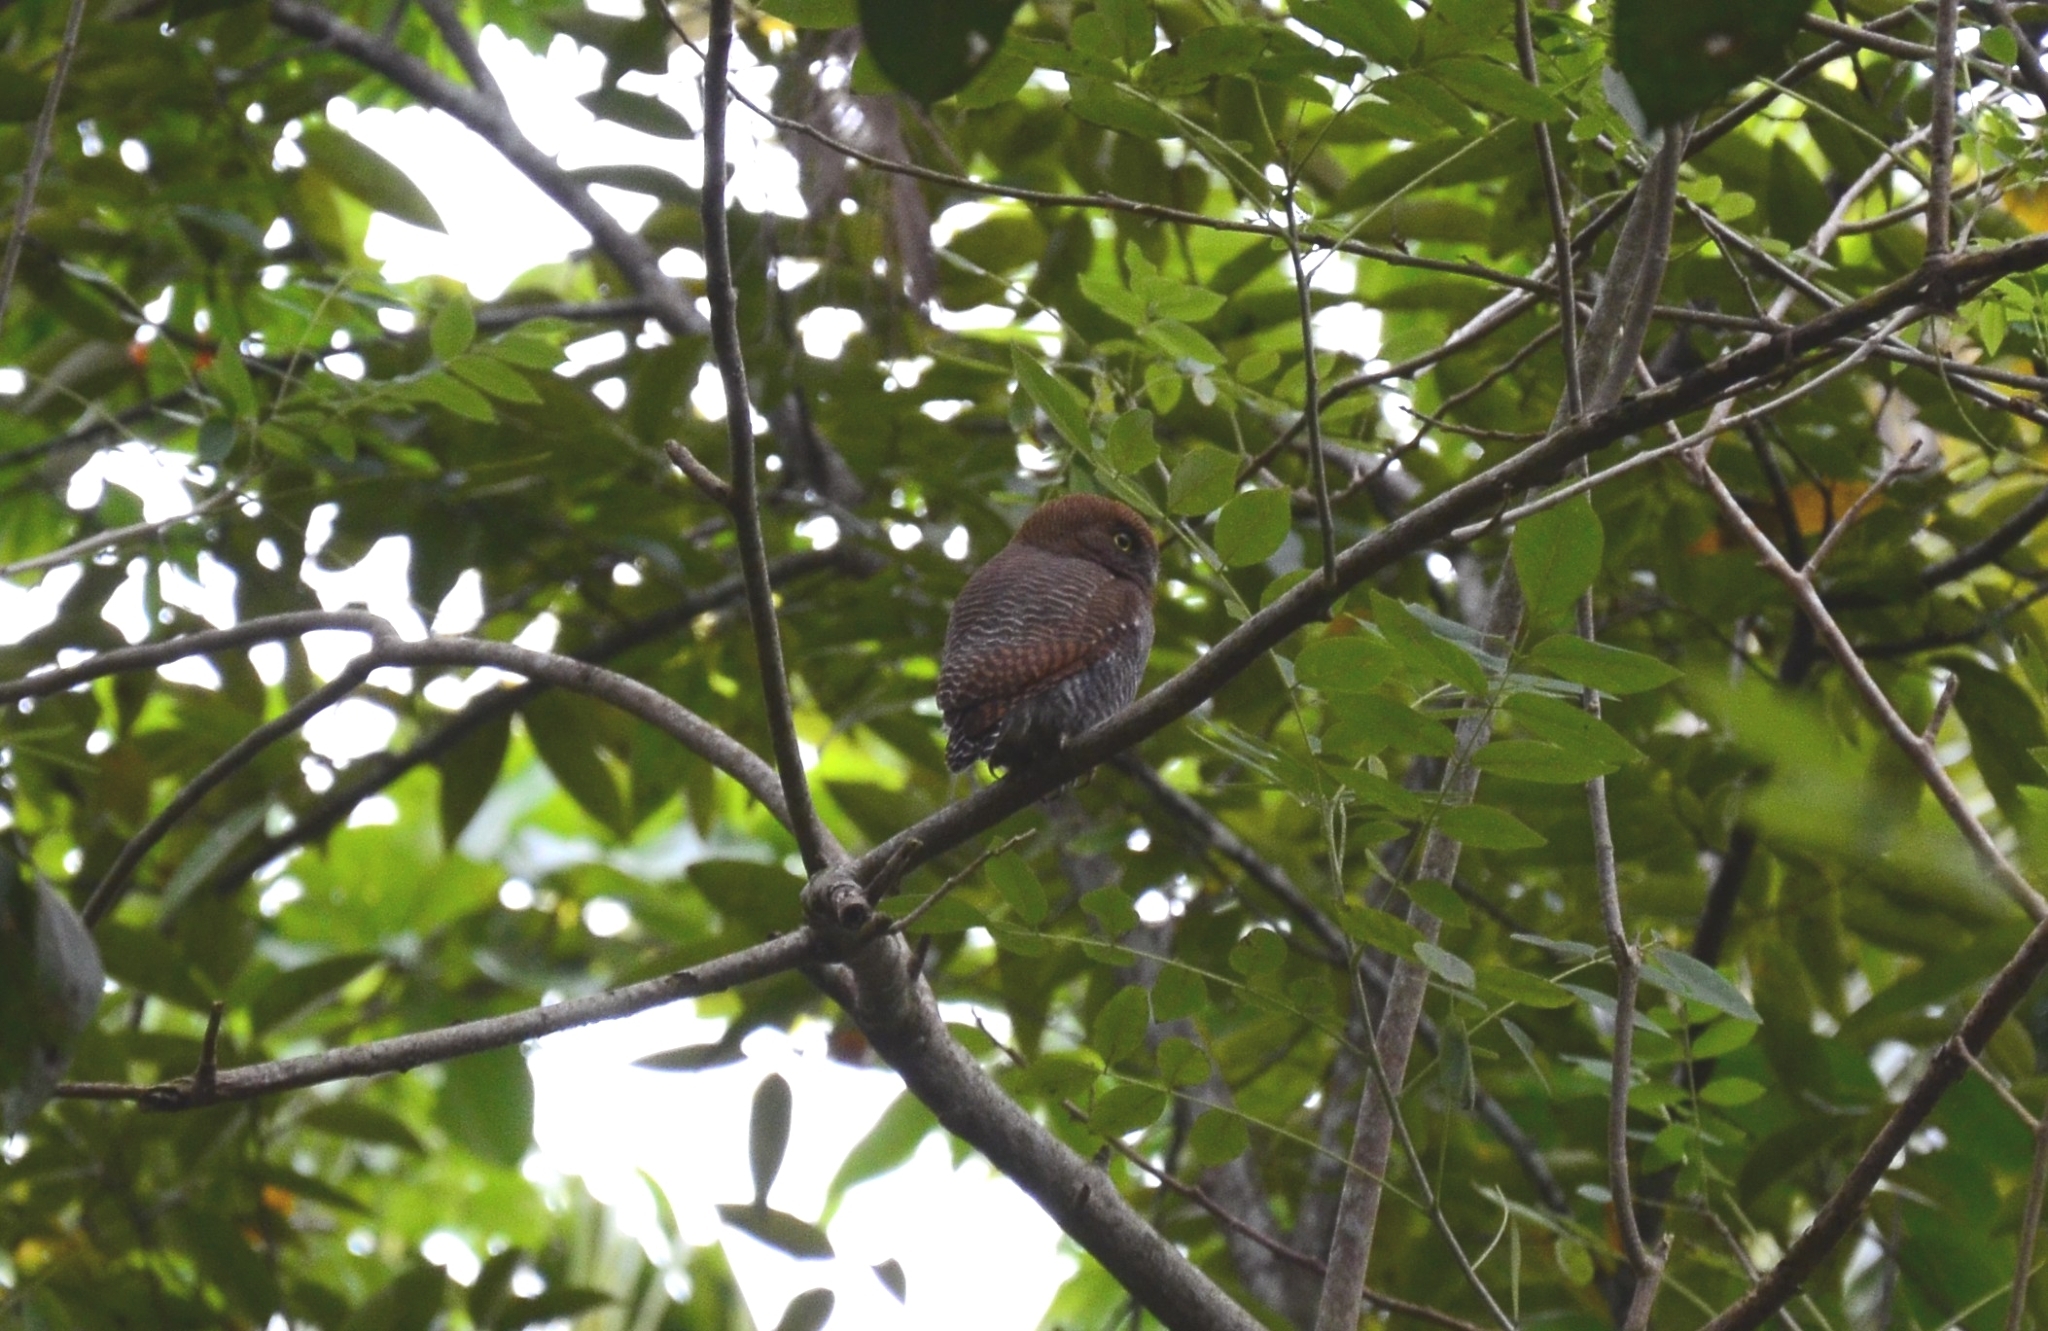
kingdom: Animalia
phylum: Chordata
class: Aves
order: Strigiformes
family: Strigidae
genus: Glaucidium
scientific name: Glaucidium radiatum
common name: Jungle owlet
